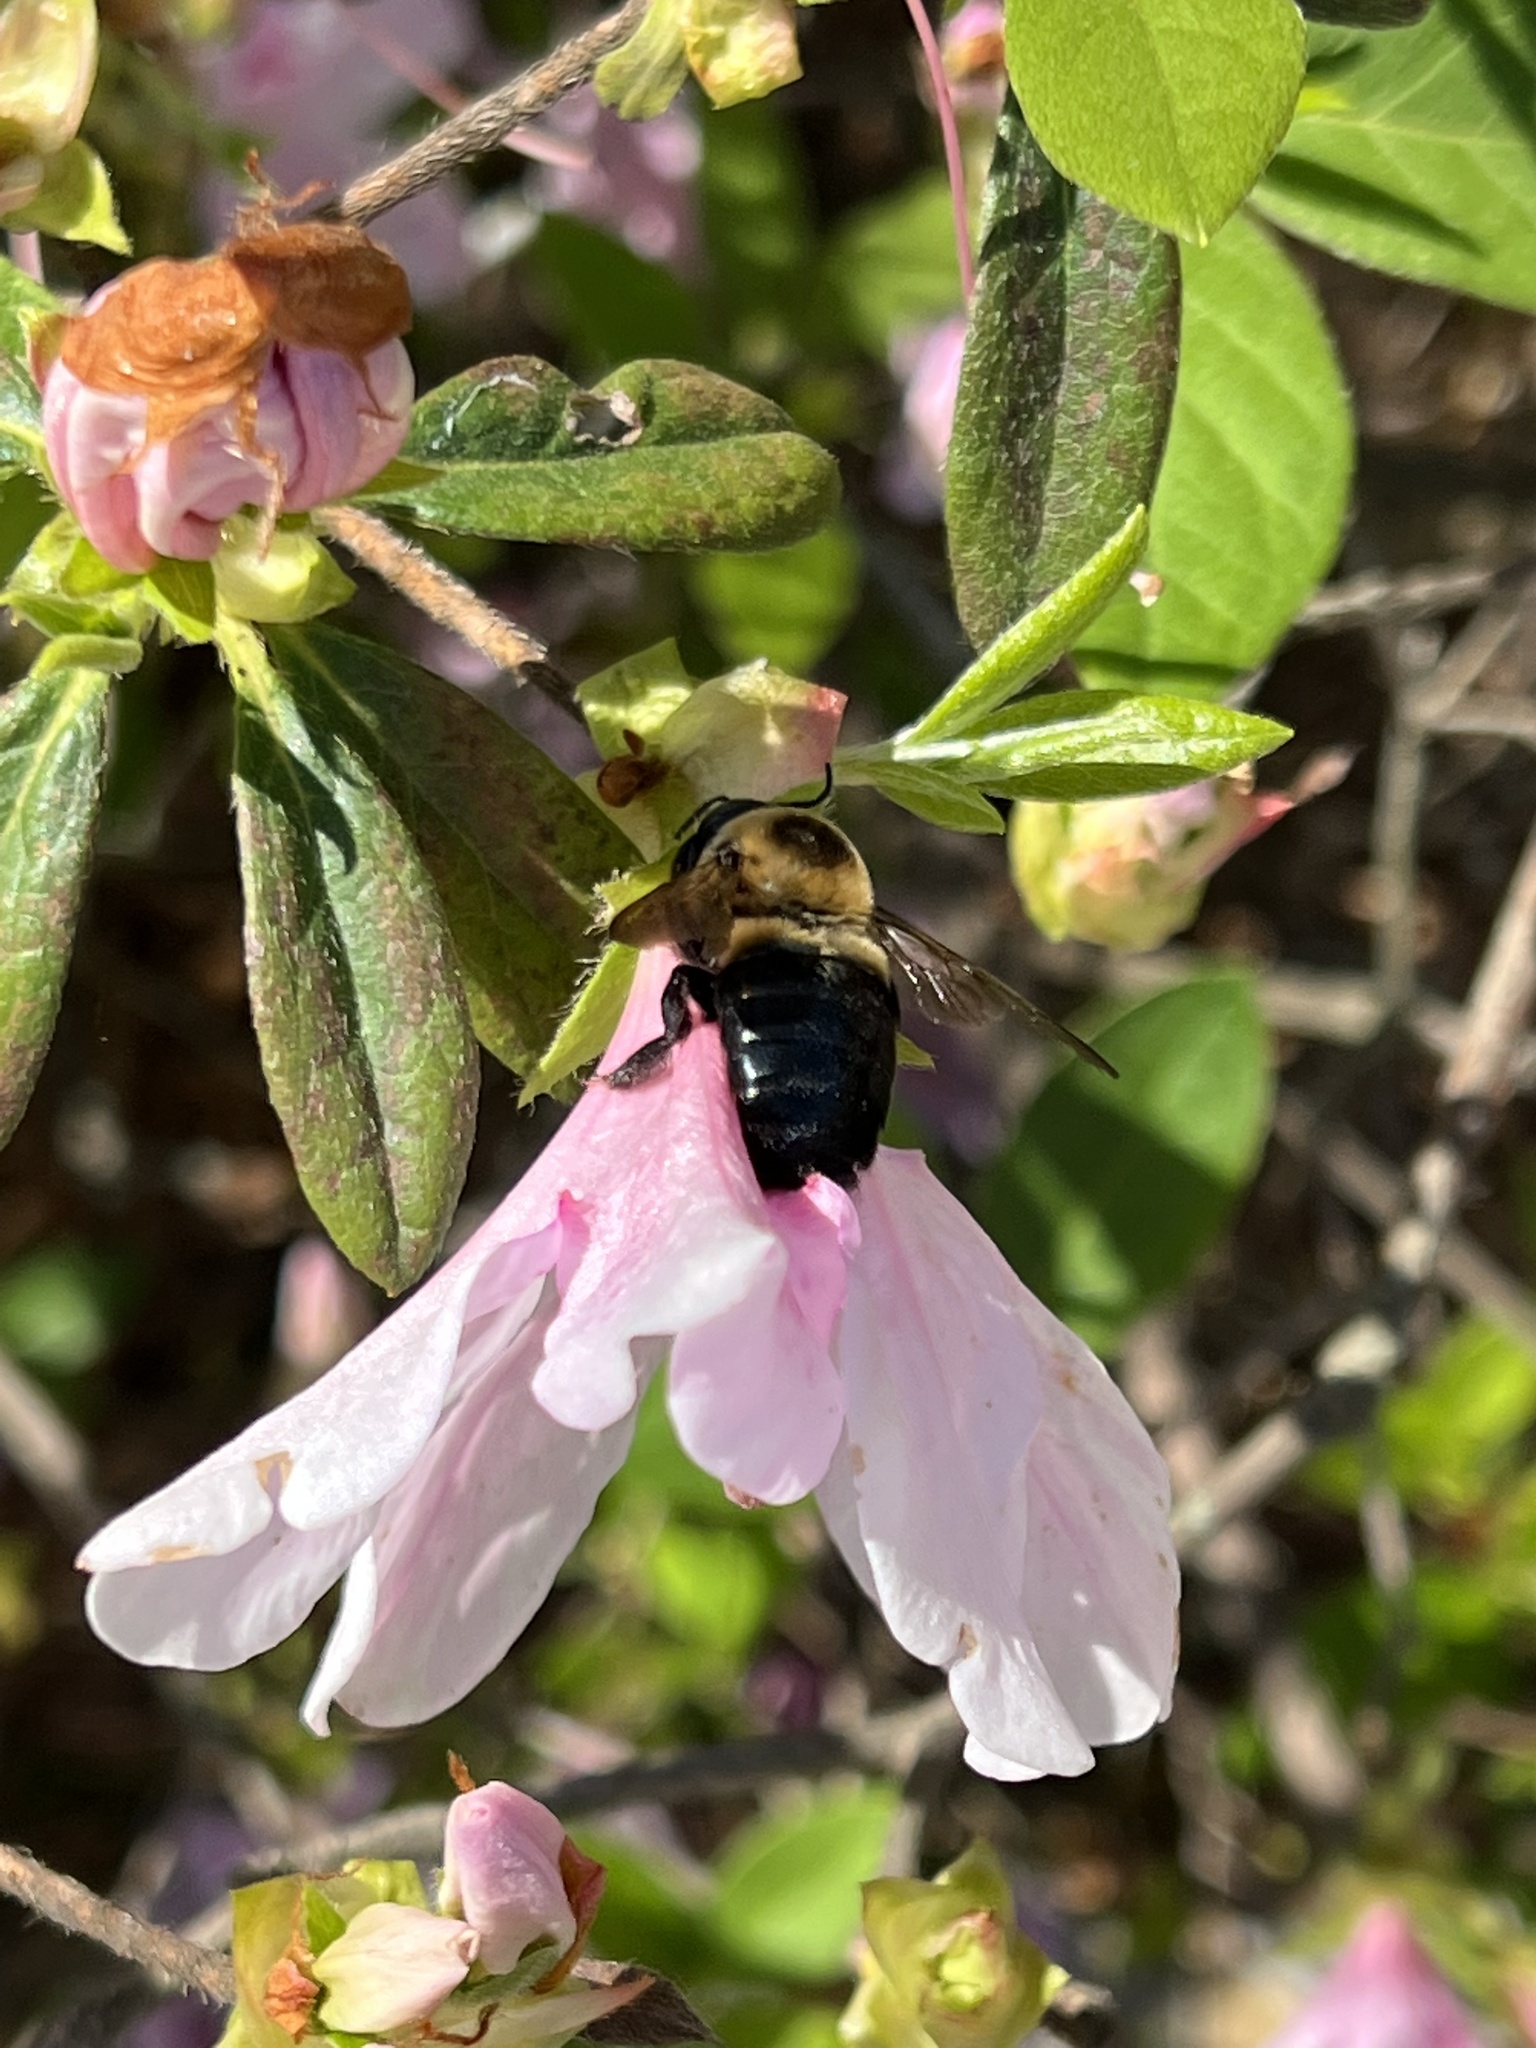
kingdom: Animalia
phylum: Arthropoda
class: Insecta
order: Hymenoptera
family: Apidae
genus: Xylocopa
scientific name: Xylocopa virginica
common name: Carpenter bee
